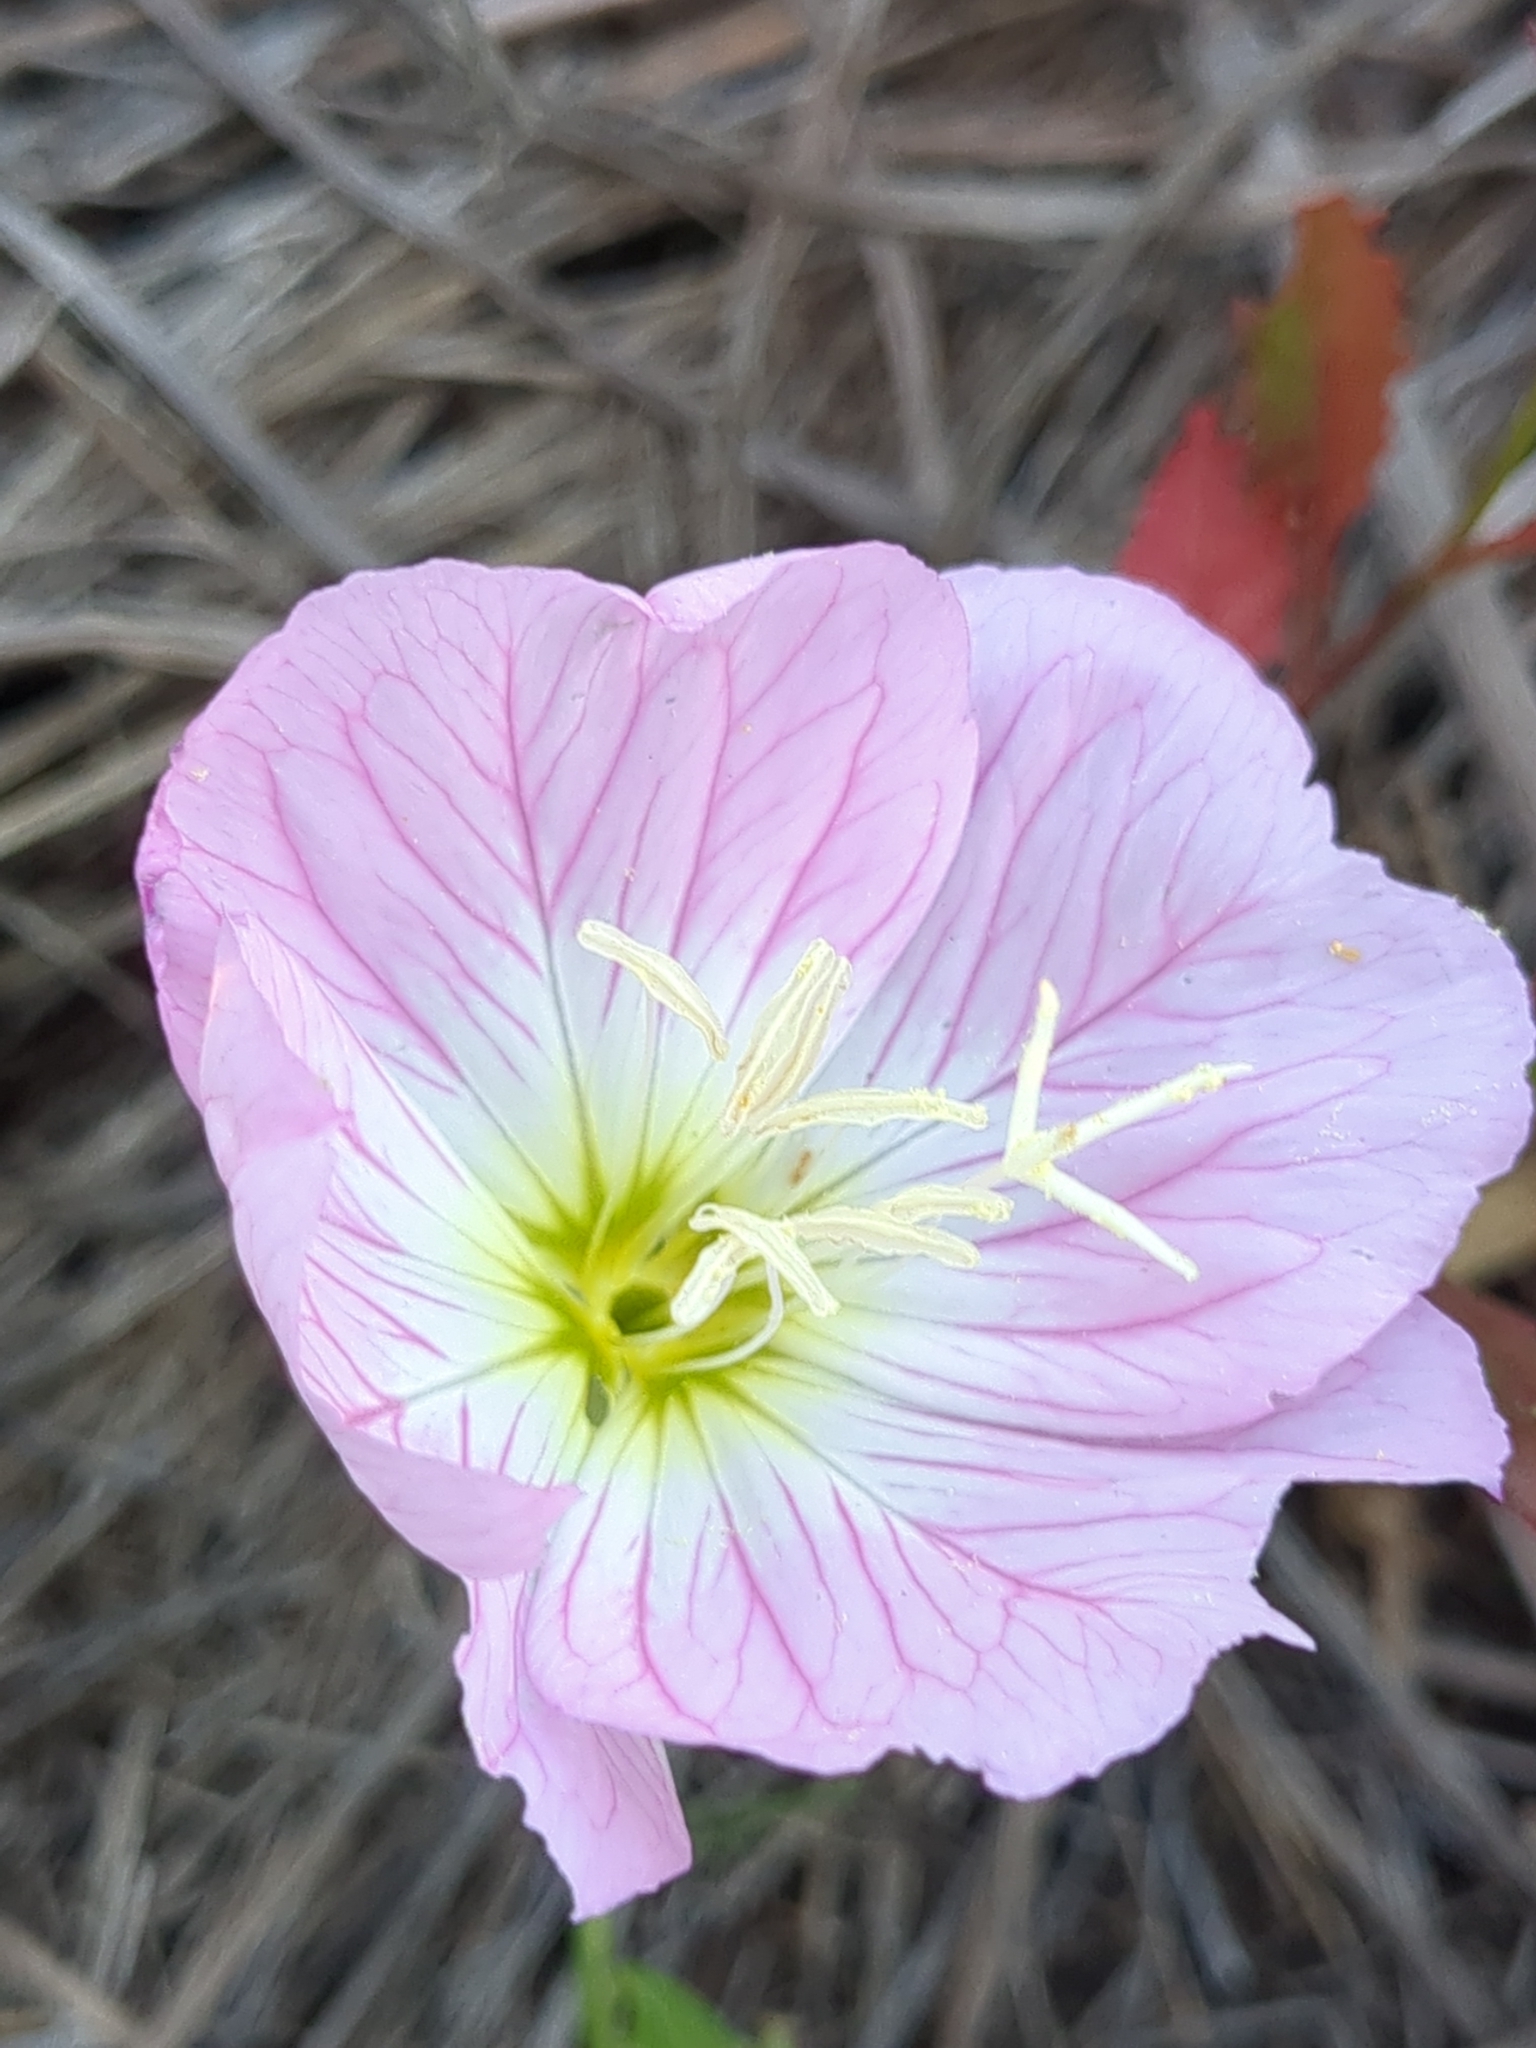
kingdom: Plantae
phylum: Tracheophyta
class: Magnoliopsida
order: Myrtales
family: Onagraceae
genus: Oenothera
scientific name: Oenothera speciosa
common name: White evening-primrose
